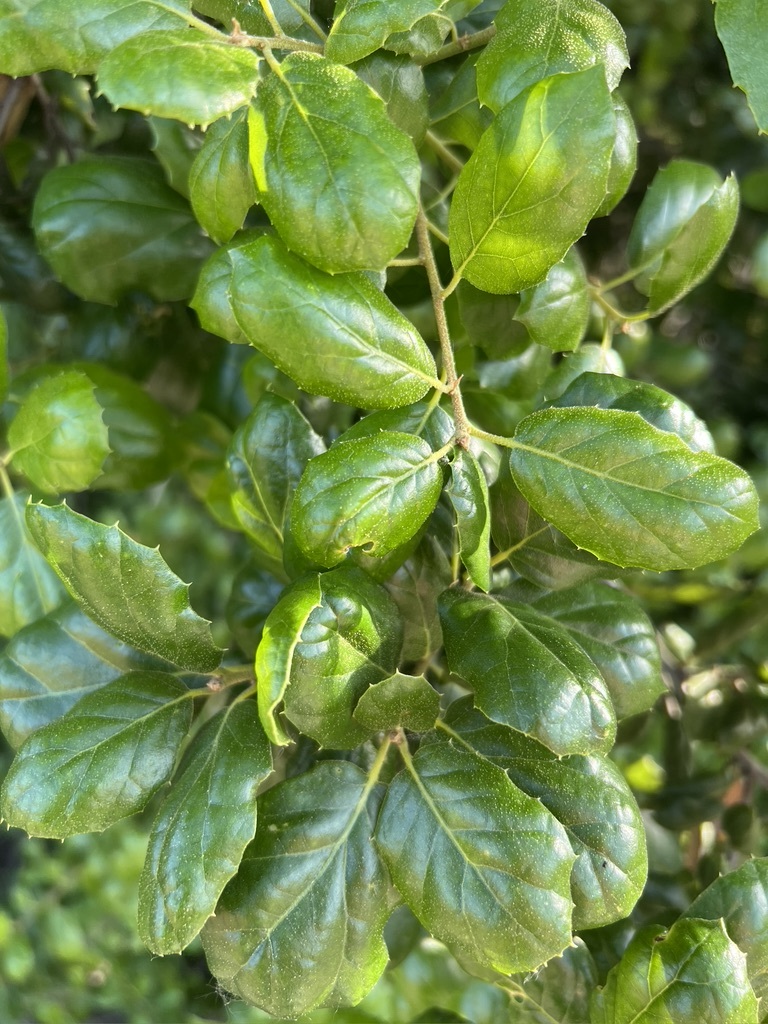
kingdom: Plantae
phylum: Tracheophyta
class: Magnoliopsida
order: Fagales
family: Fagaceae
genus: Quercus
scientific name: Quercus agrifolia
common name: California live oak
